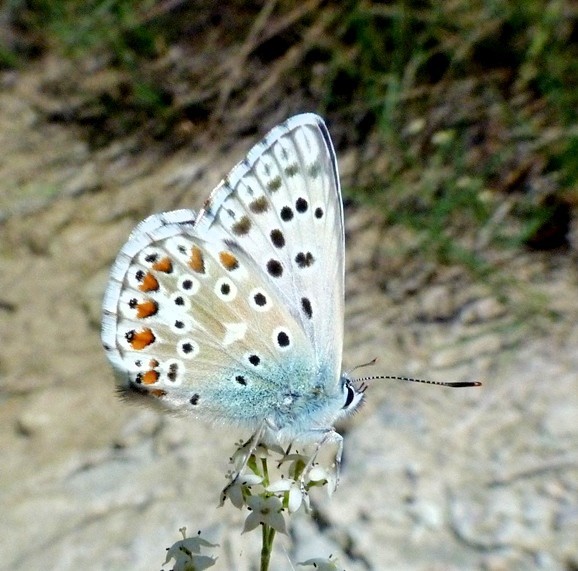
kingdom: Animalia
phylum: Arthropoda
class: Insecta
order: Lepidoptera
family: Lycaenidae
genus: Lysandra
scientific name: Lysandra hispana
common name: Provence chalkhill blue
